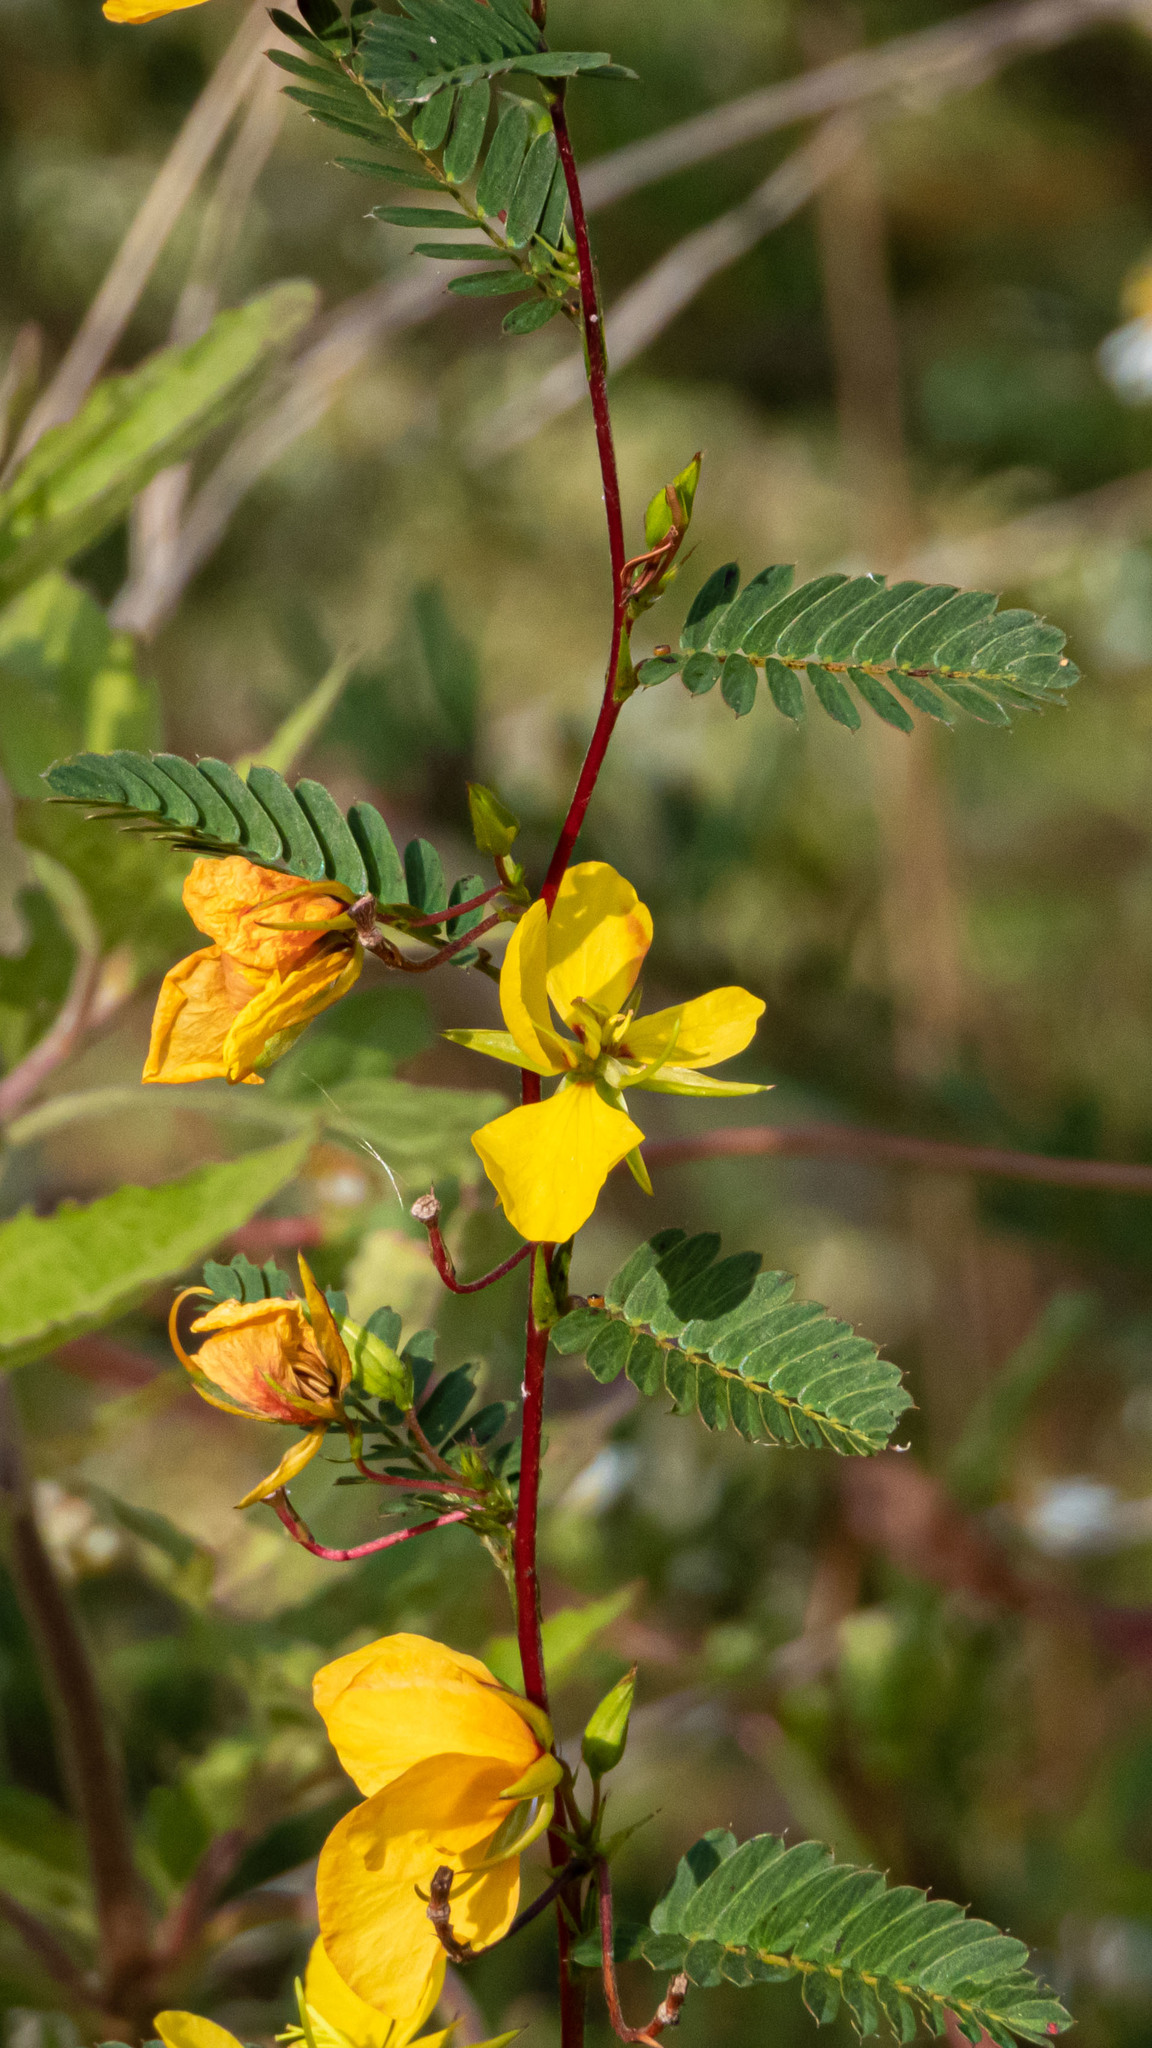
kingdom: Plantae
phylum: Tracheophyta
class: Magnoliopsida
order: Fabales
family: Fabaceae
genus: Chamaecrista
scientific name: Chamaecrista fasciculata
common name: Golden cassia
